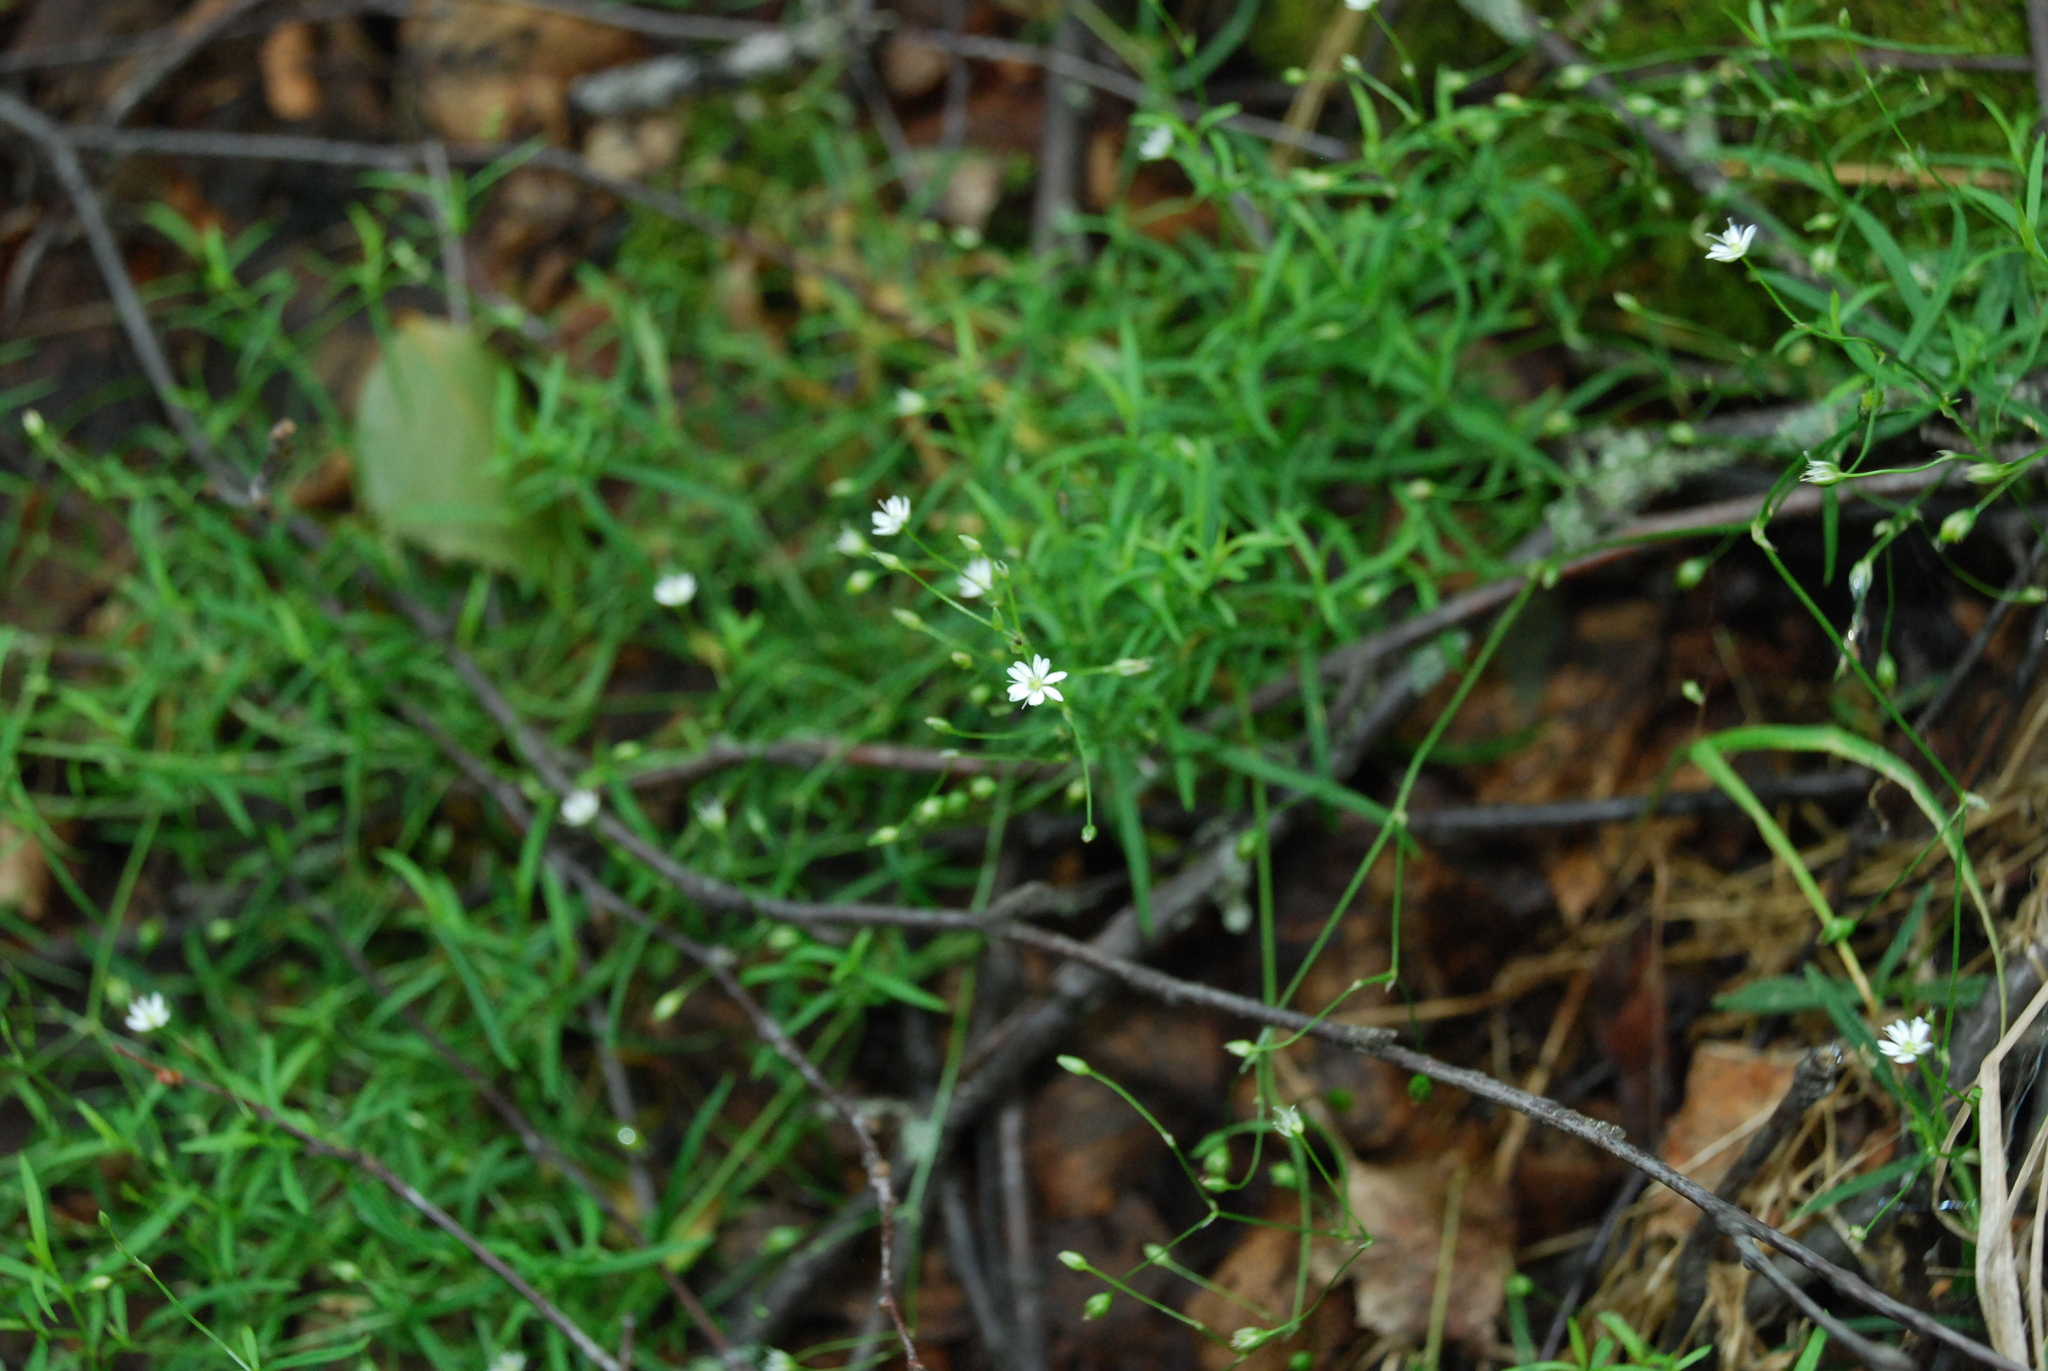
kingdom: Plantae
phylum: Tracheophyta
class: Magnoliopsida
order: Caryophyllales
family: Caryophyllaceae
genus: Stellaria
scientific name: Stellaria longifolia
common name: Long-leaved chickweed
